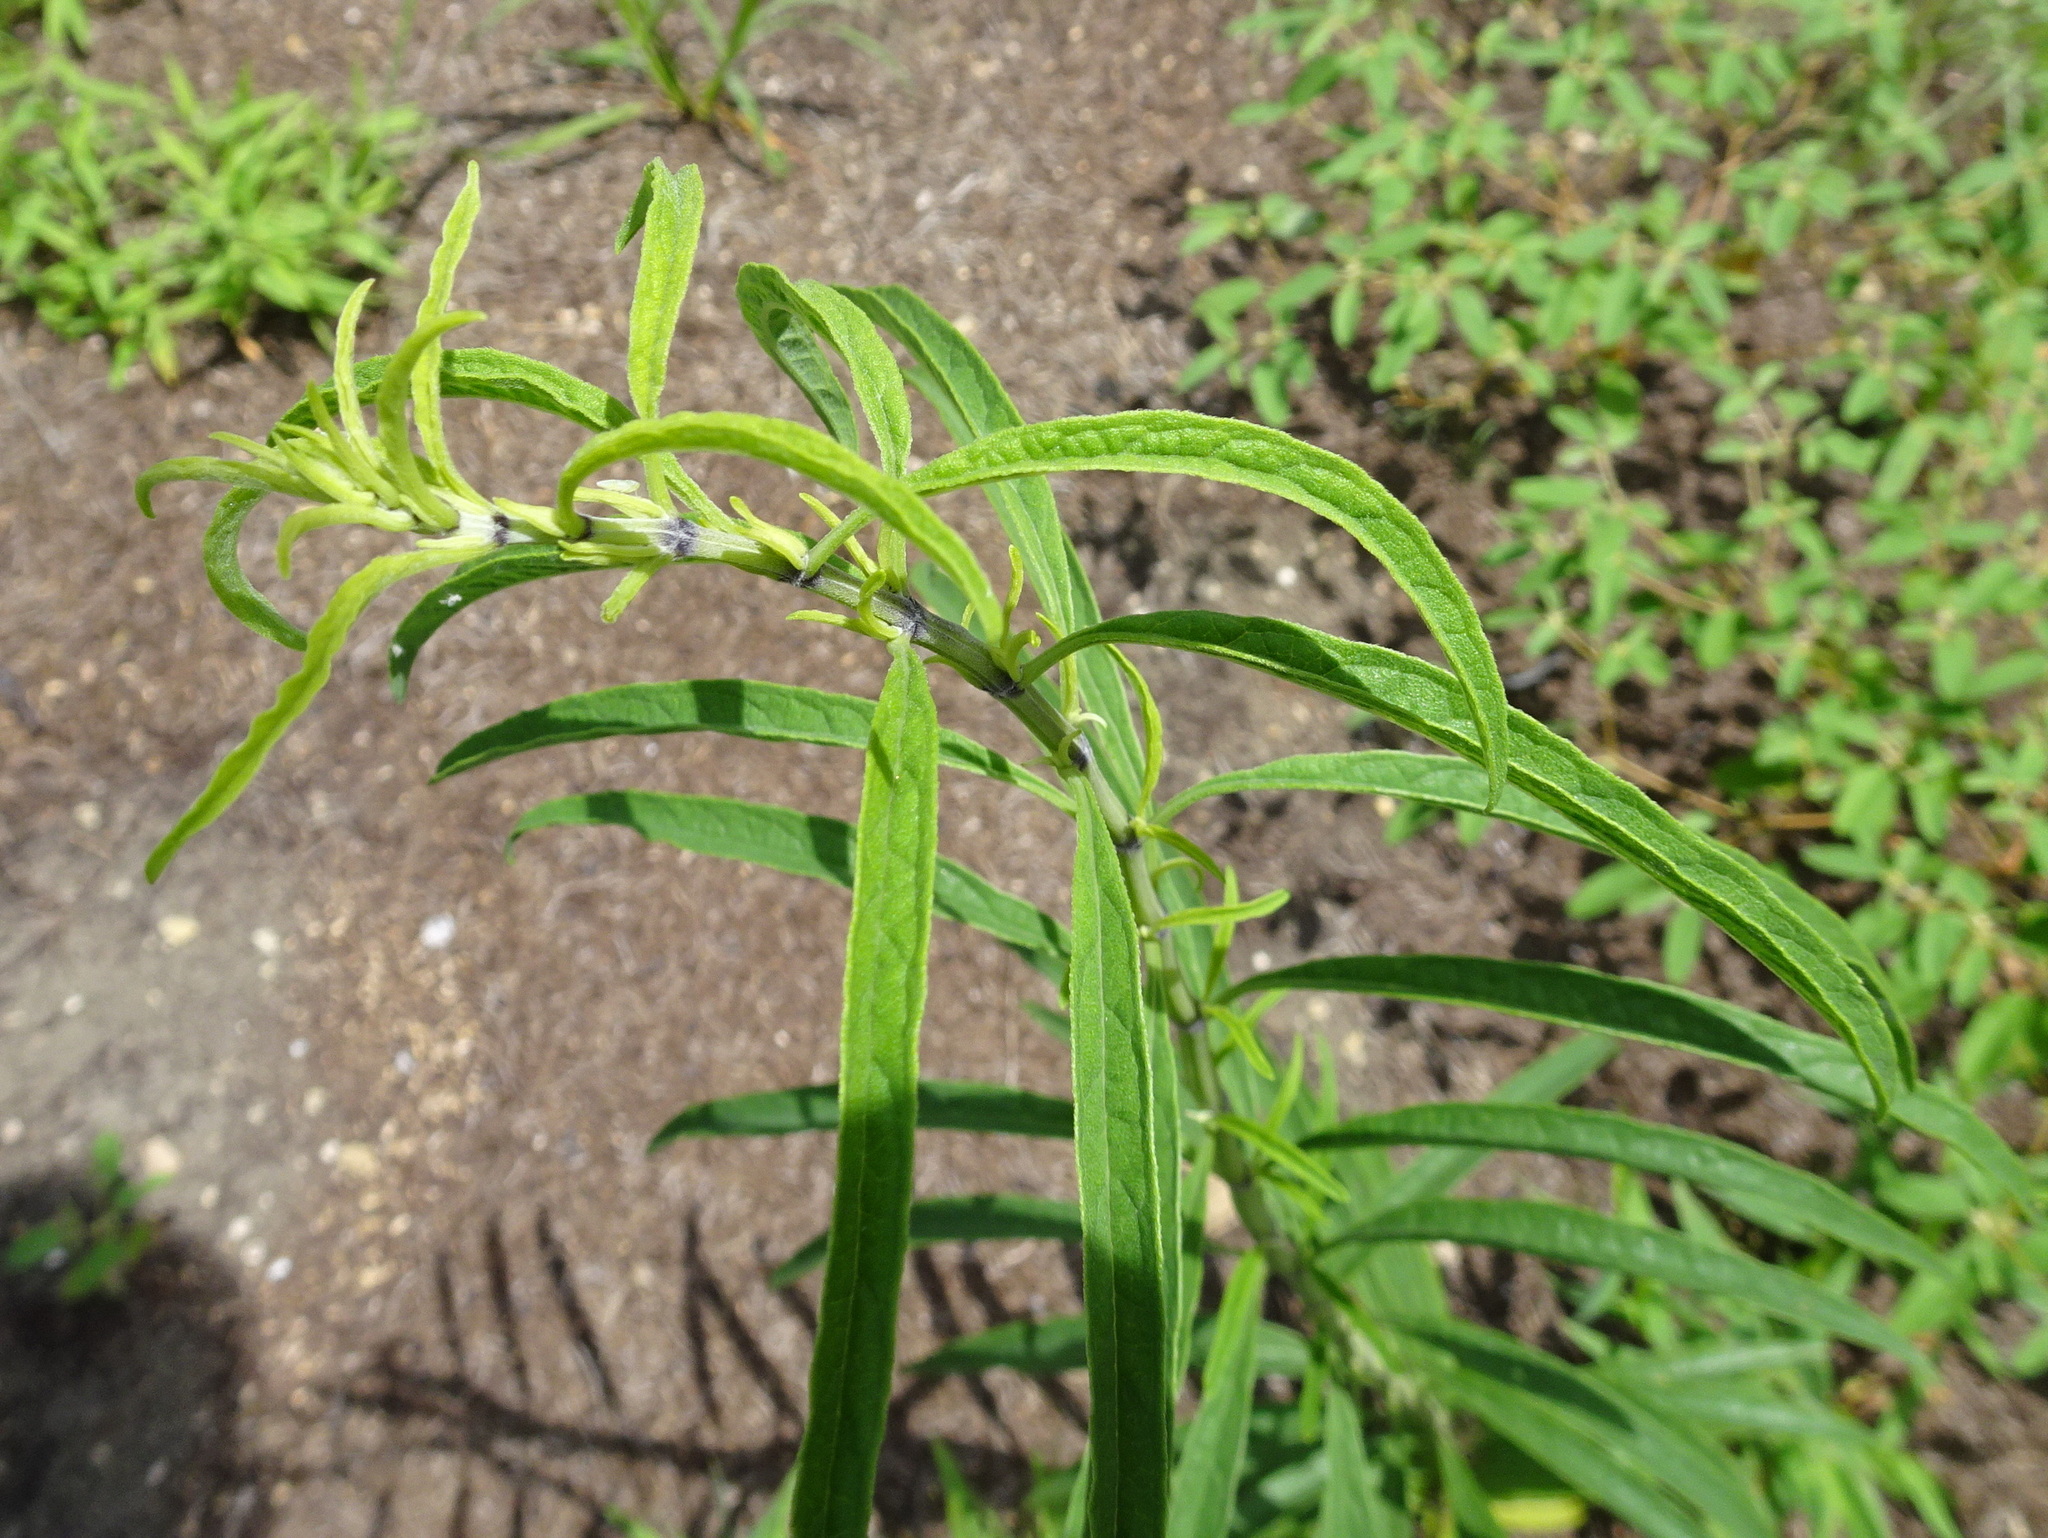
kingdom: Plantae
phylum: Tracheophyta
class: Magnoliopsida
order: Lamiales
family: Lamiaceae
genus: Salvia
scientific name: Salvia azurea
